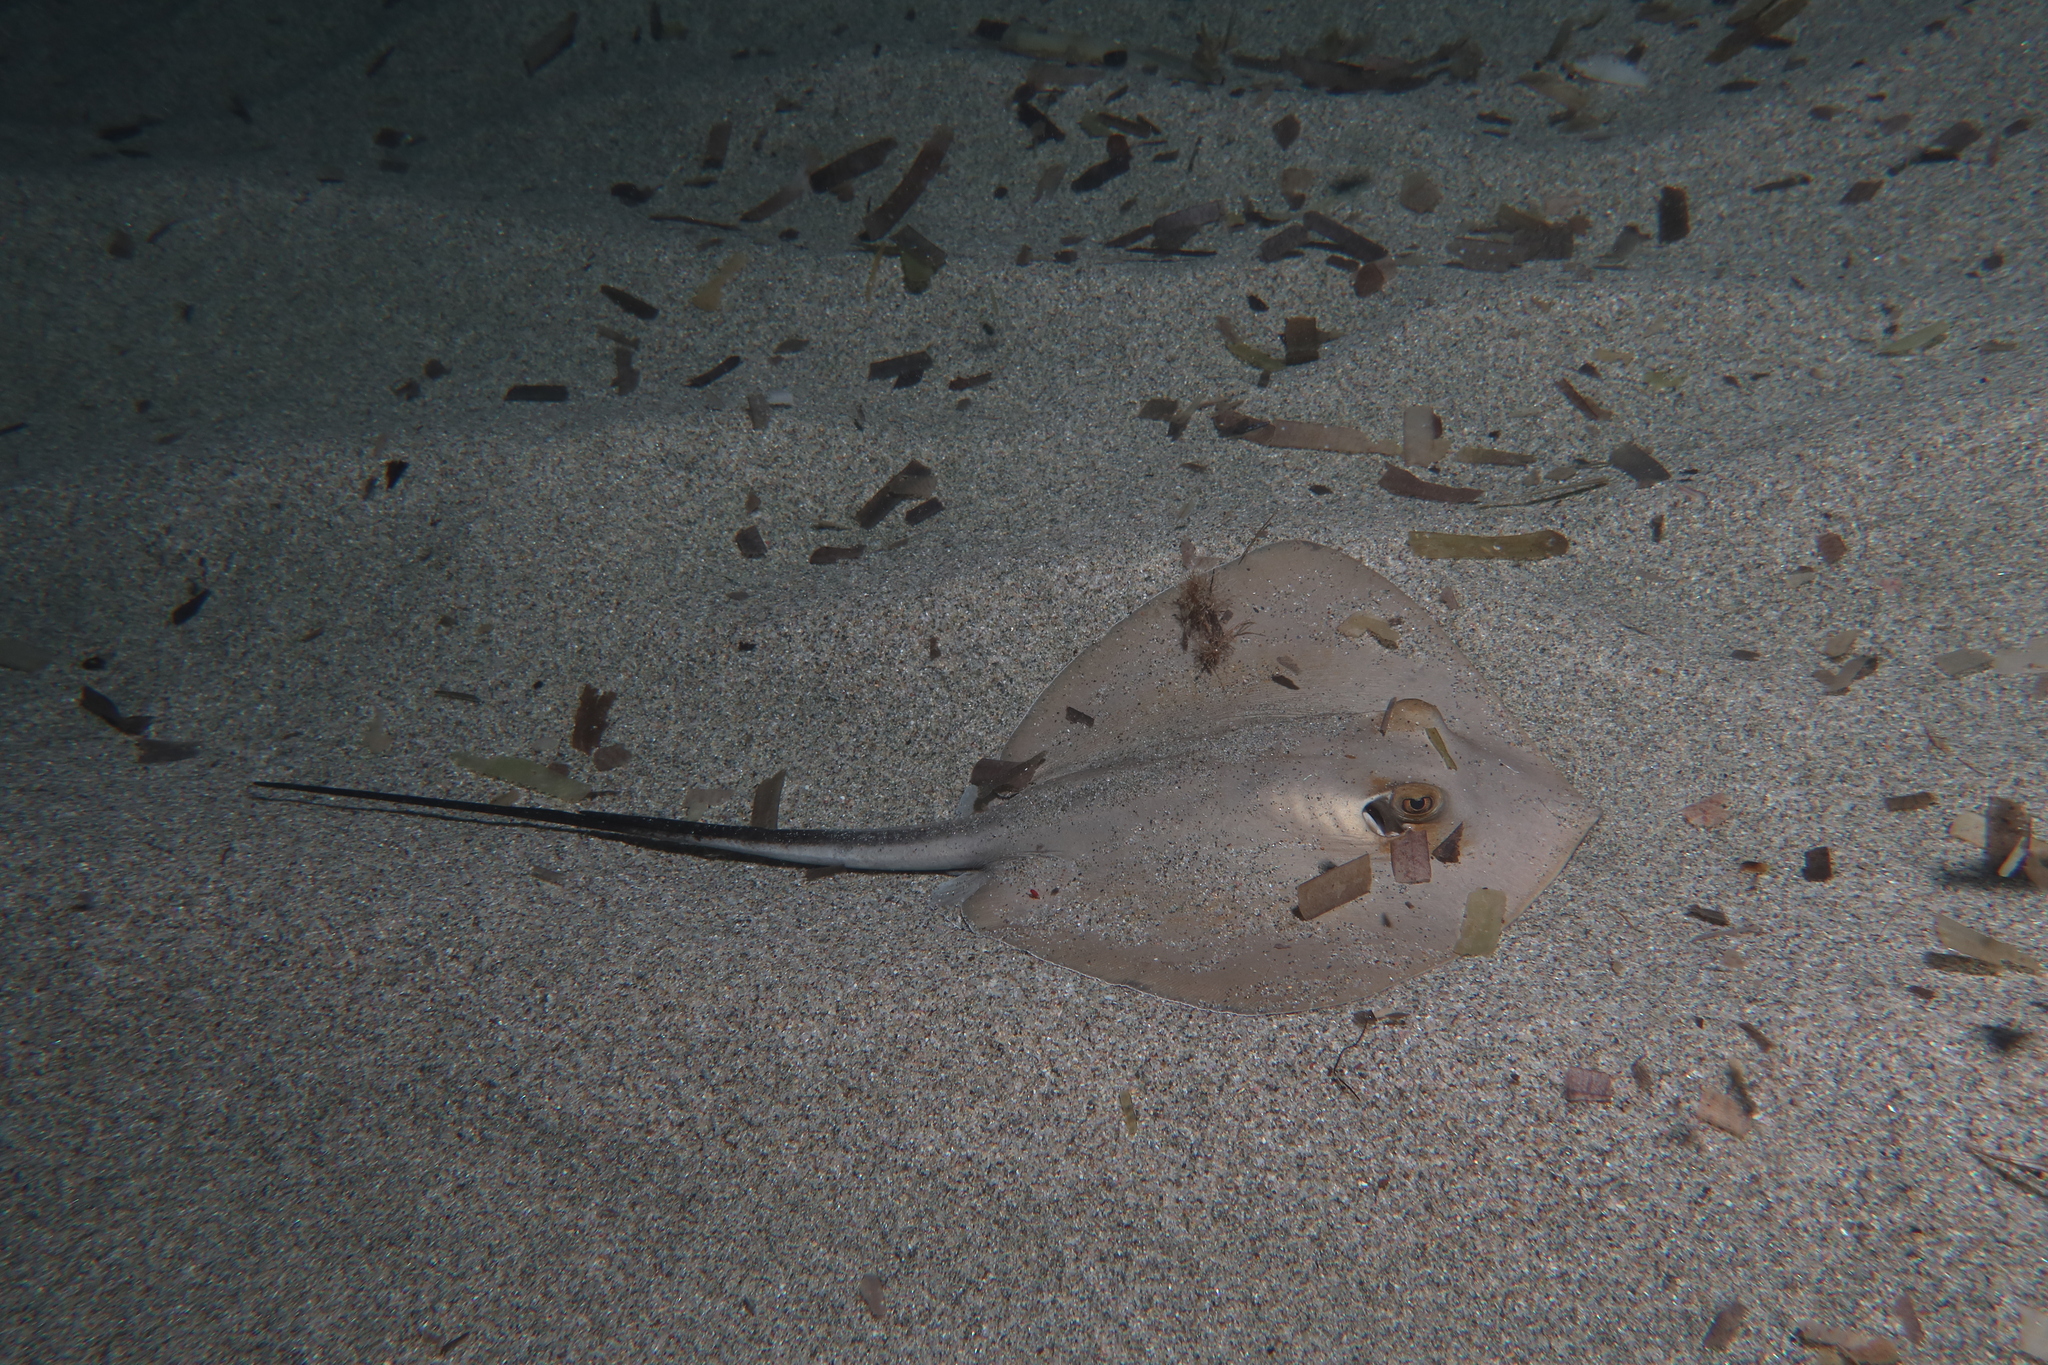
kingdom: Animalia
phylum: Chordata
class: Elasmobranchii
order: Myliobatiformes
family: Dasyatidae
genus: Dasyatis
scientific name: Dasyatis pastinaca
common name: Common stingray
